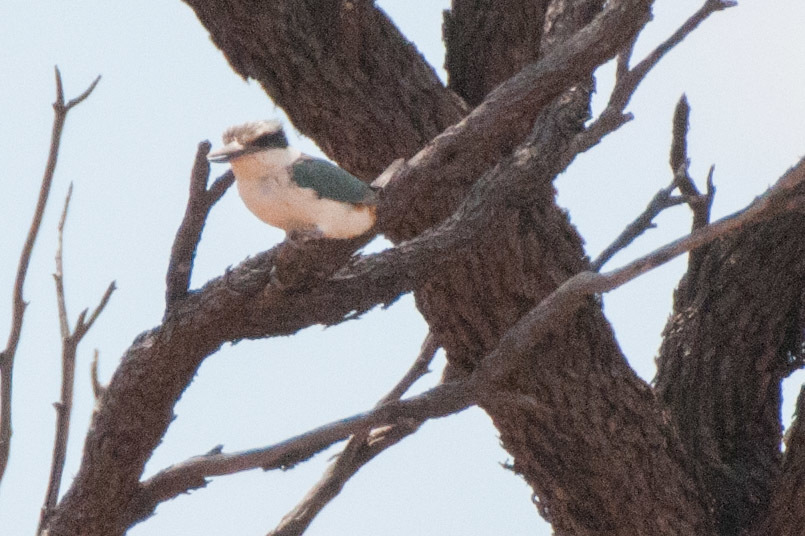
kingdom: Animalia
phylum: Chordata
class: Aves
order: Coraciiformes
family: Alcedinidae
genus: Todiramphus
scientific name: Todiramphus pyrrhopygius
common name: Red-backed kingfisher
